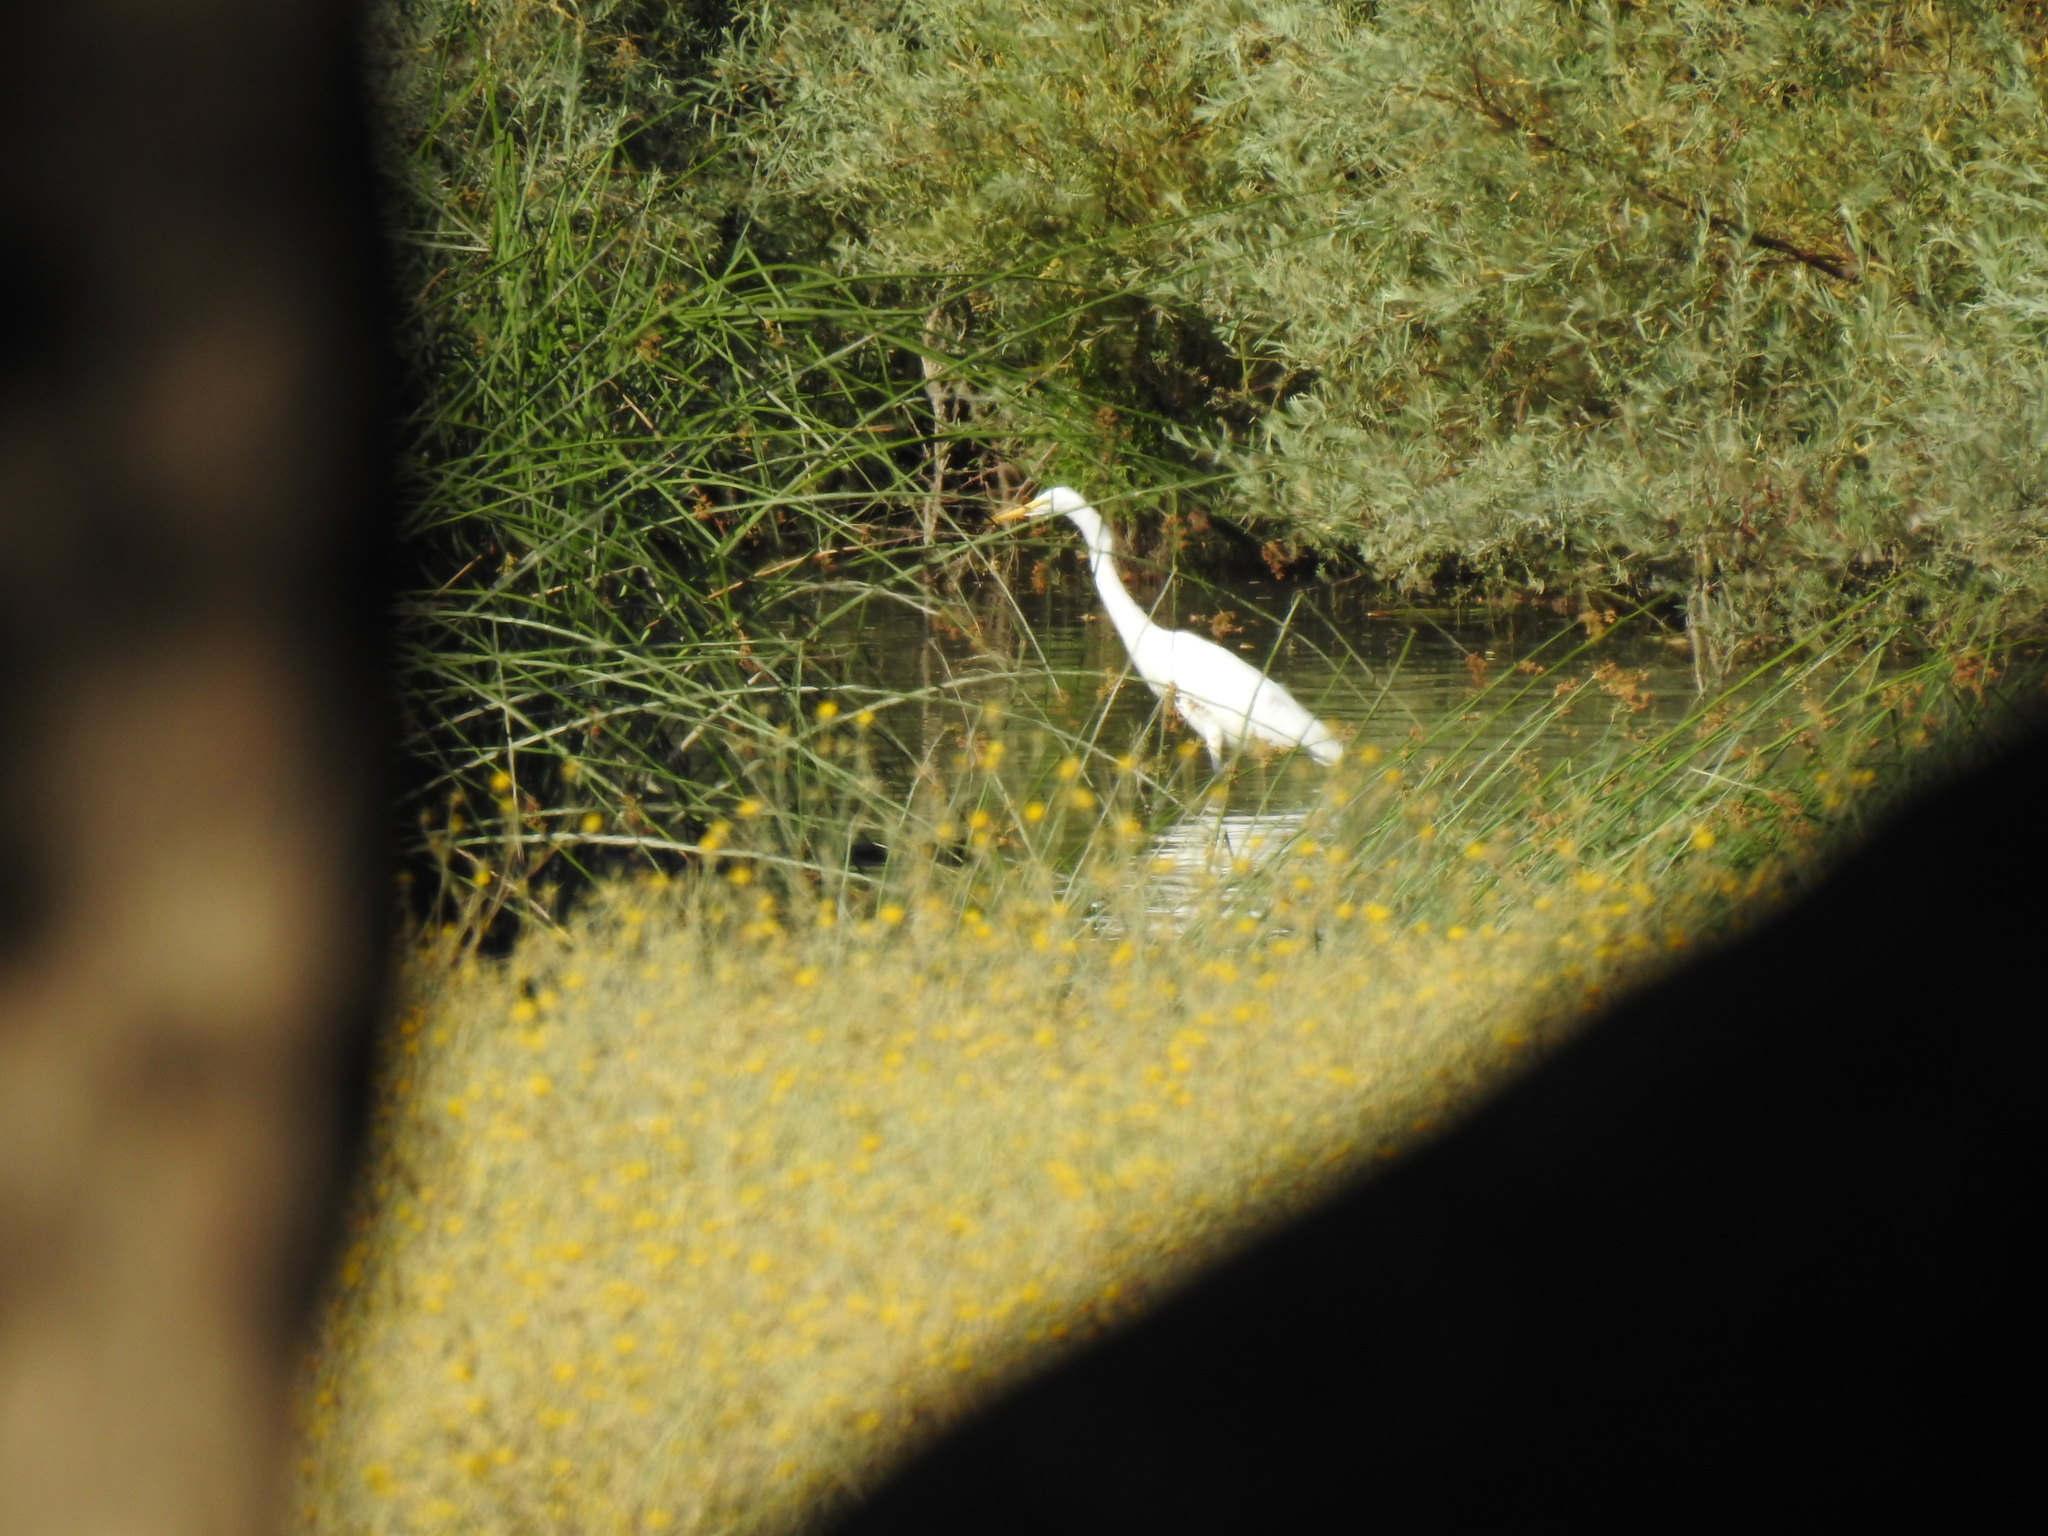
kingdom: Animalia
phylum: Chordata
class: Aves
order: Pelecaniformes
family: Ardeidae
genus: Ardea
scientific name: Ardea alba
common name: Great egret
